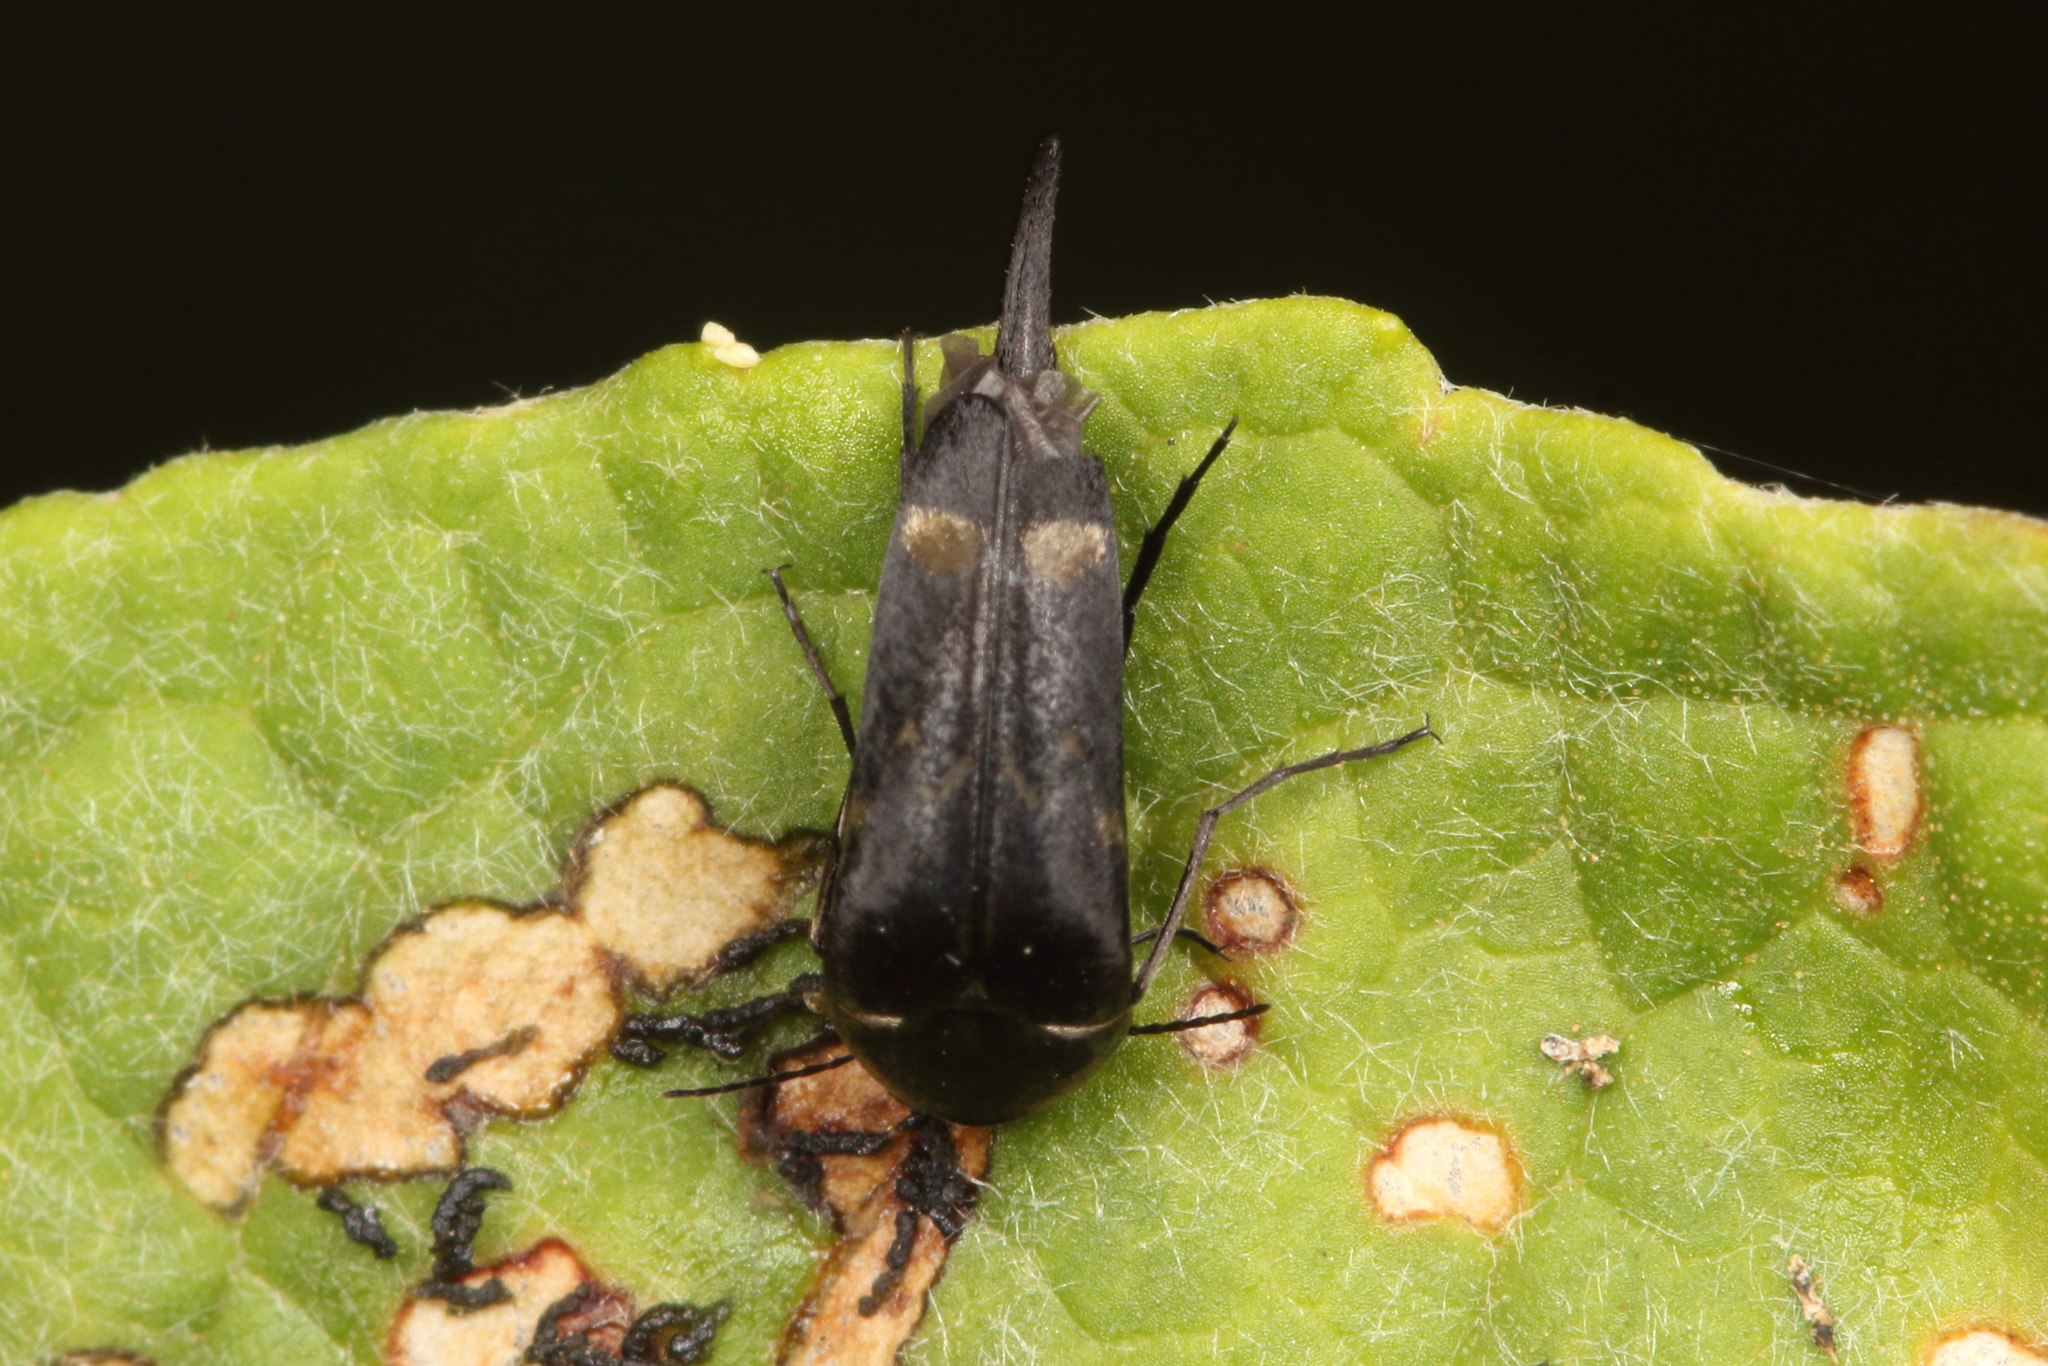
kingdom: Animalia
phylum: Arthropoda
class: Insecta
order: Coleoptera
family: Mordellidae
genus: Mordella
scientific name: Mordella
